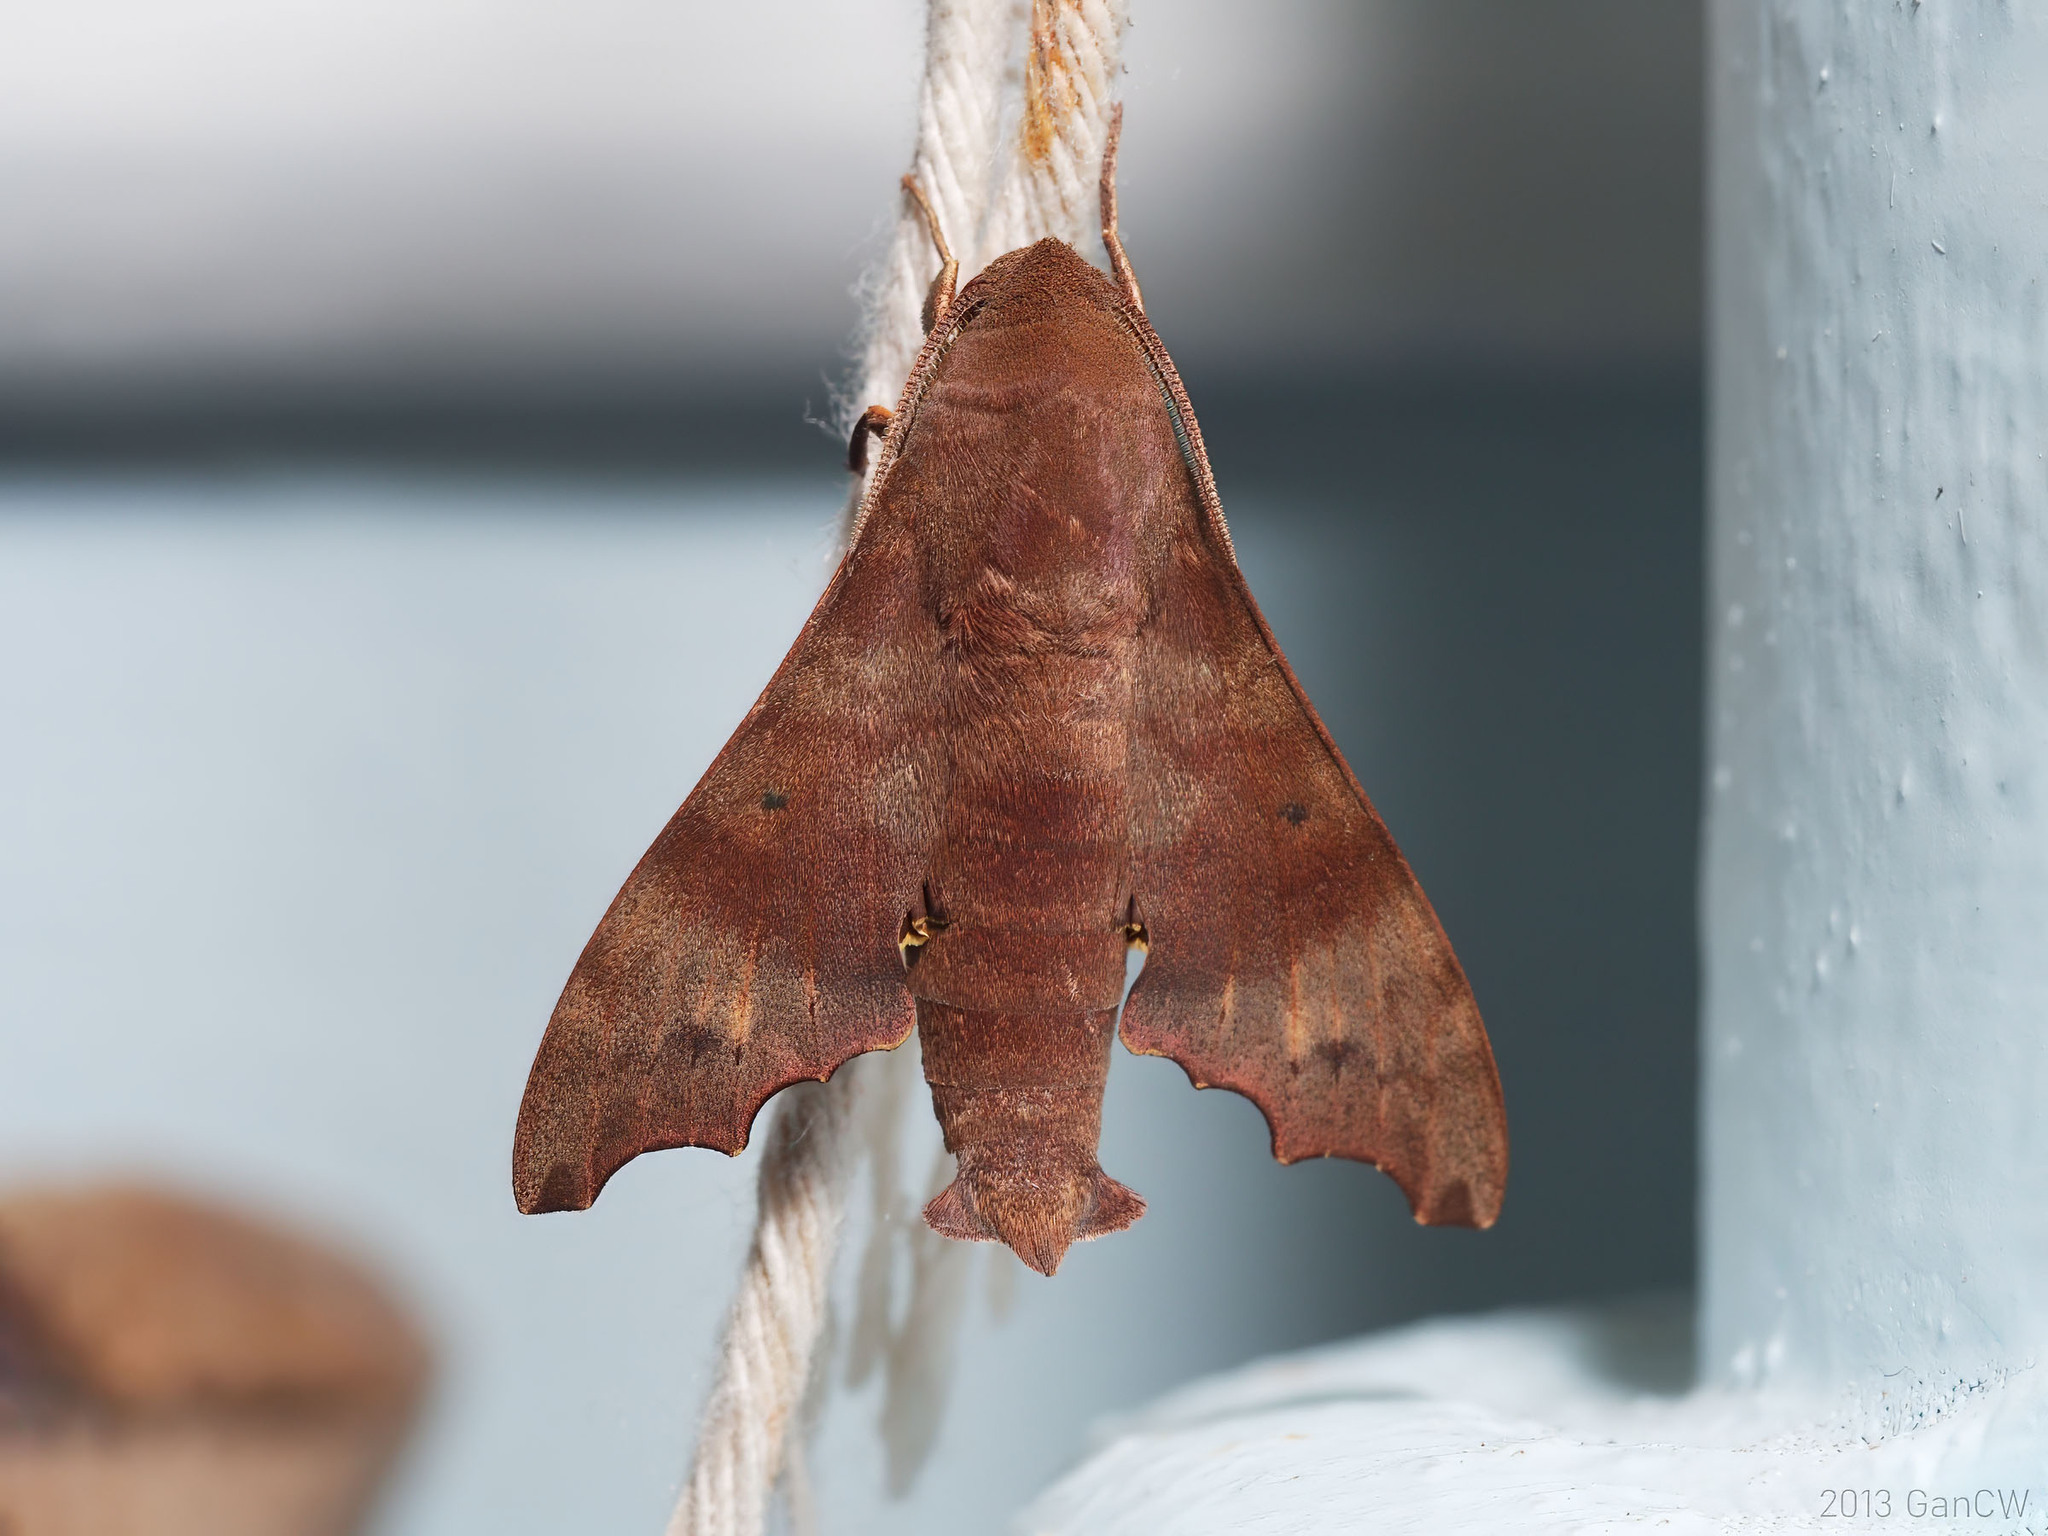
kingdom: Animalia
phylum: Arthropoda
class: Insecta
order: Lepidoptera
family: Sphingidae
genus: Cypa
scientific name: Cypa decolor
